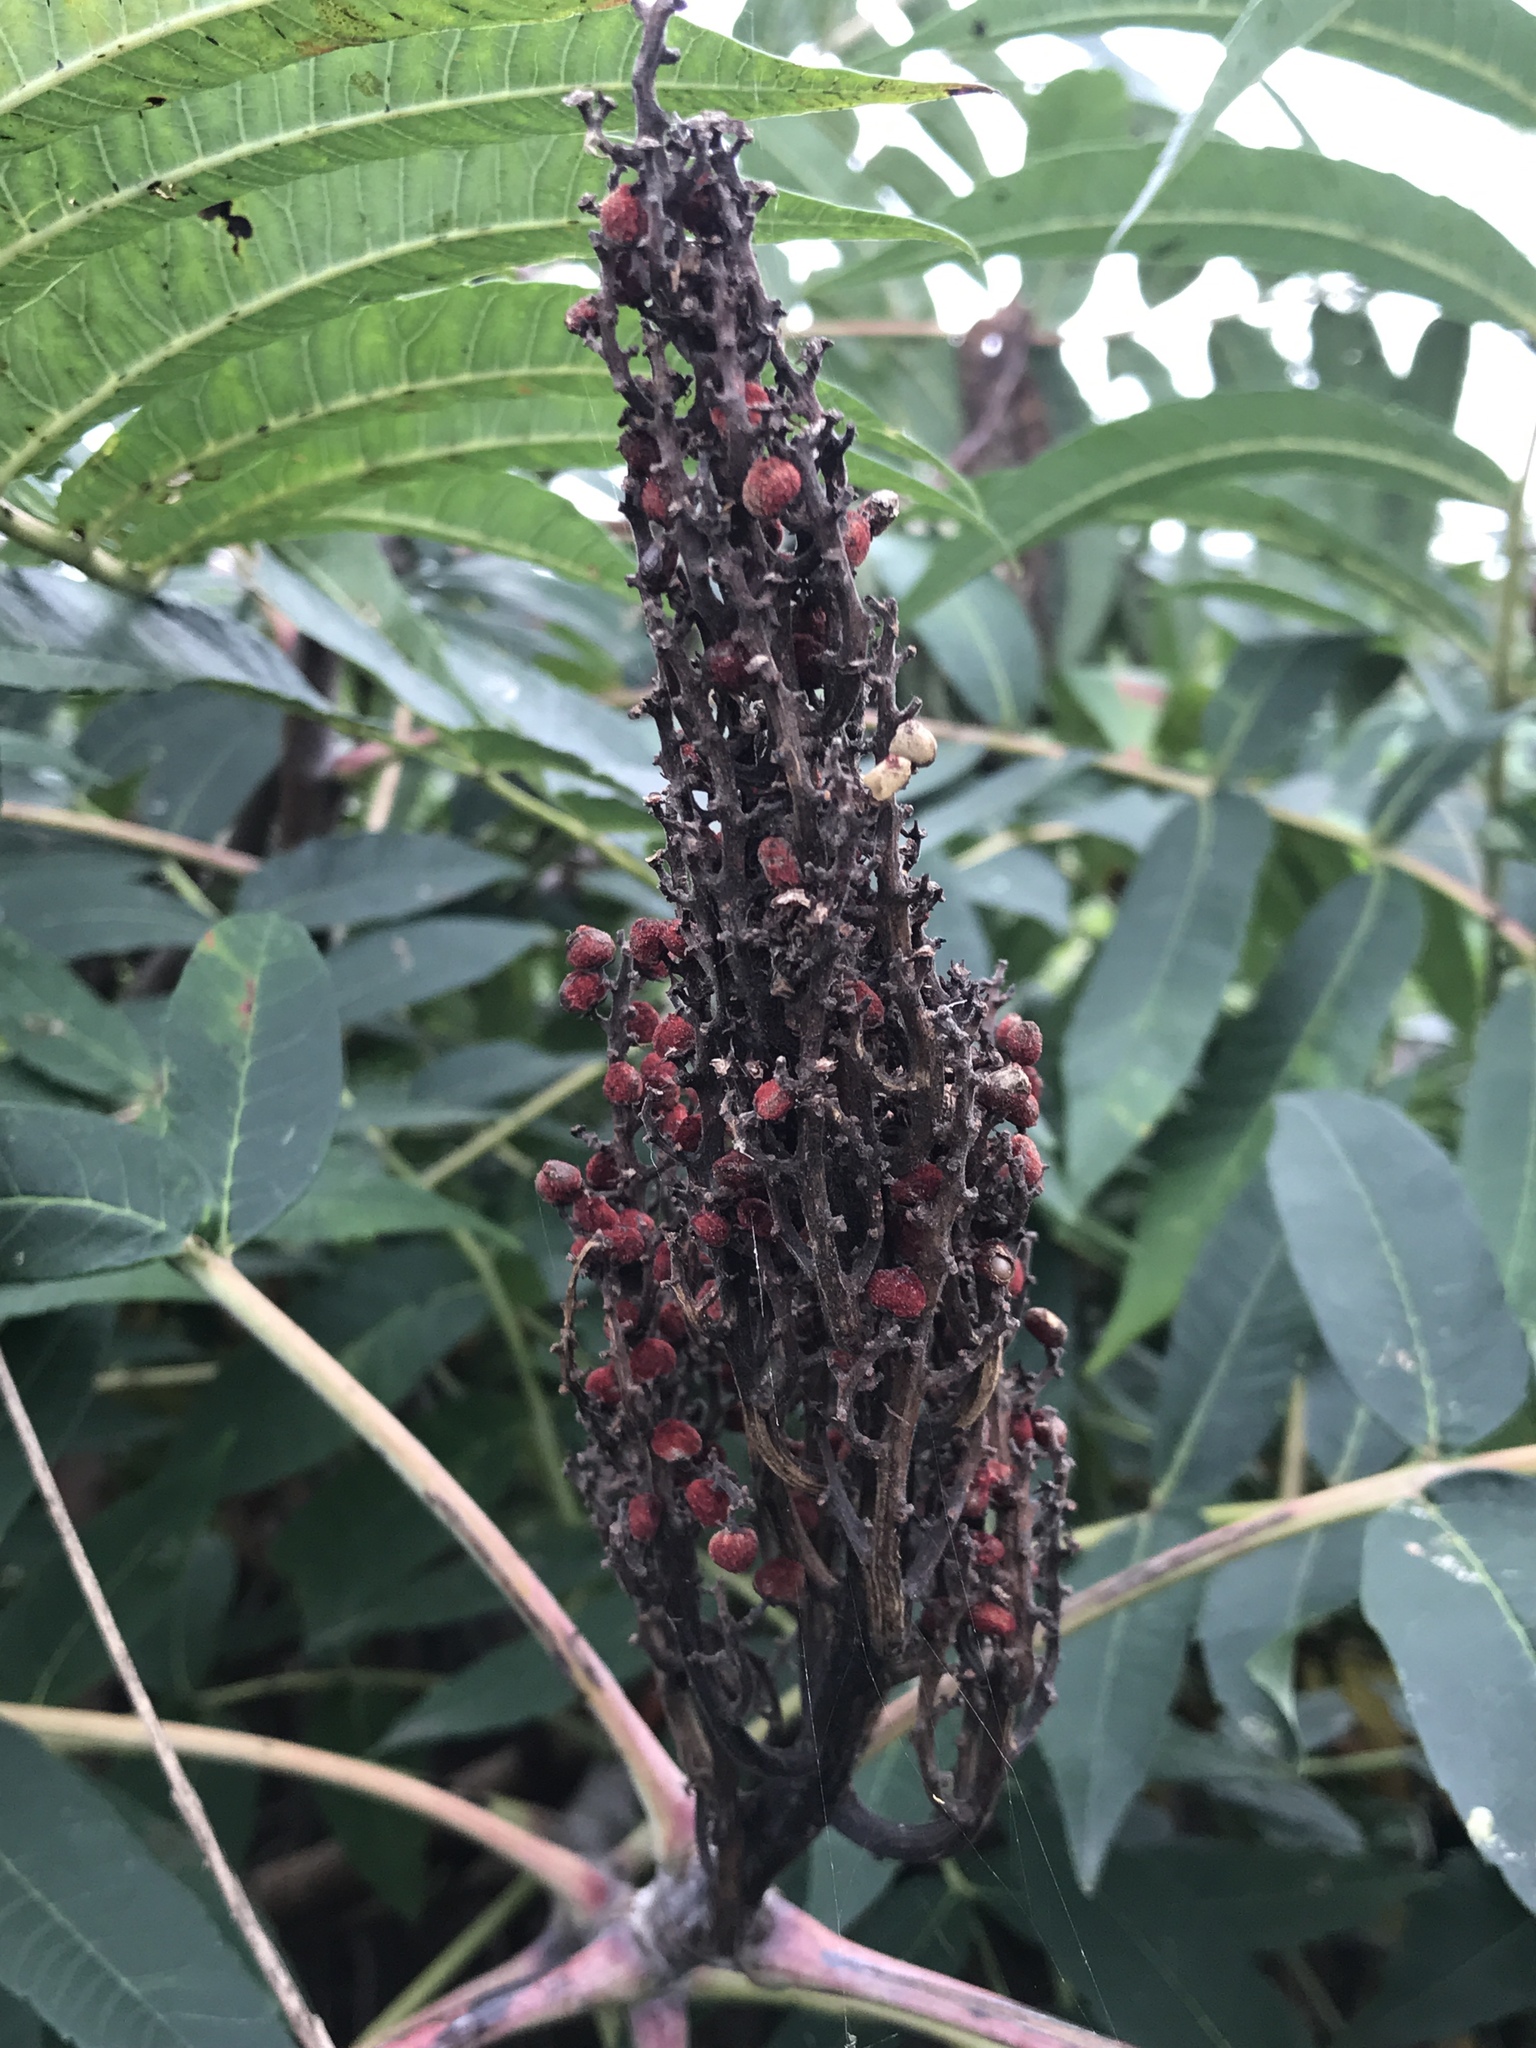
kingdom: Plantae
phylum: Tracheophyta
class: Magnoliopsida
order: Sapindales
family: Anacardiaceae
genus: Rhus
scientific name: Rhus glabra
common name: Scarlet sumac
